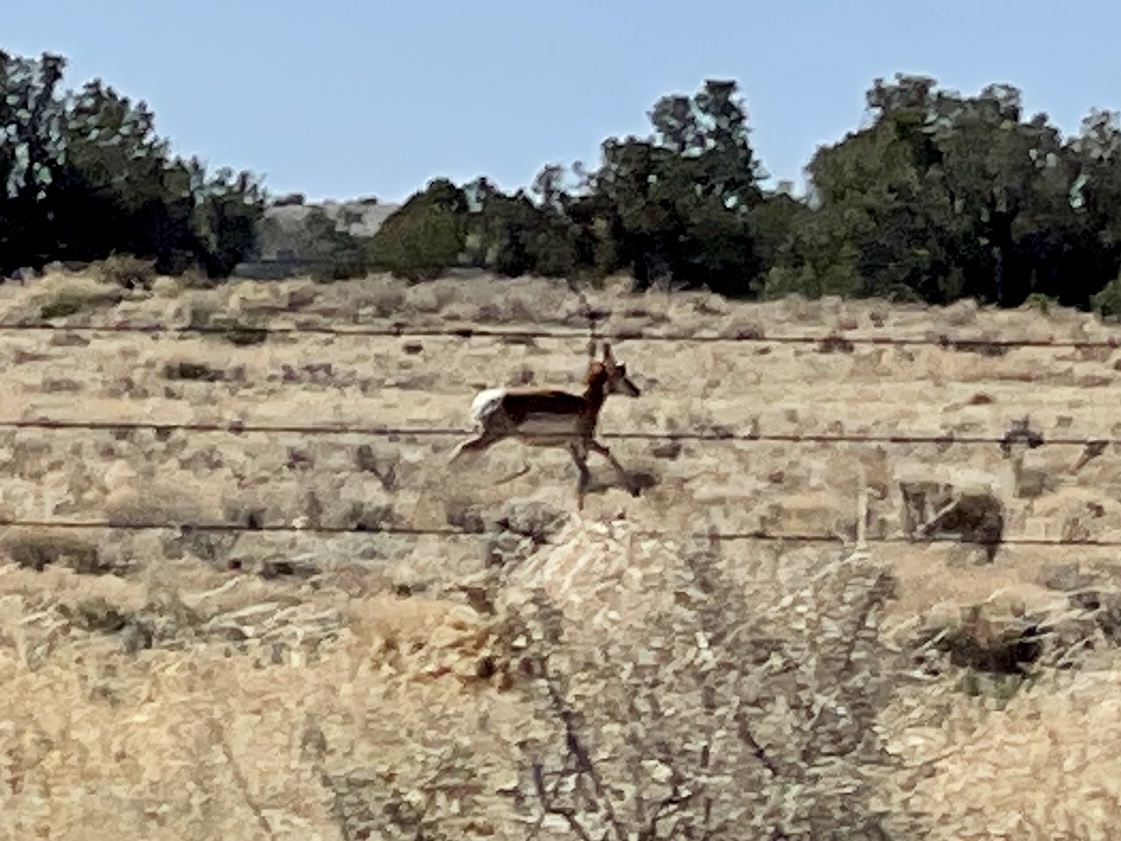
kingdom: Animalia
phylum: Chordata
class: Mammalia
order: Artiodactyla
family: Antilocapridae
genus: Antilocapra
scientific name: Antilocapra americana
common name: Pronghorn
